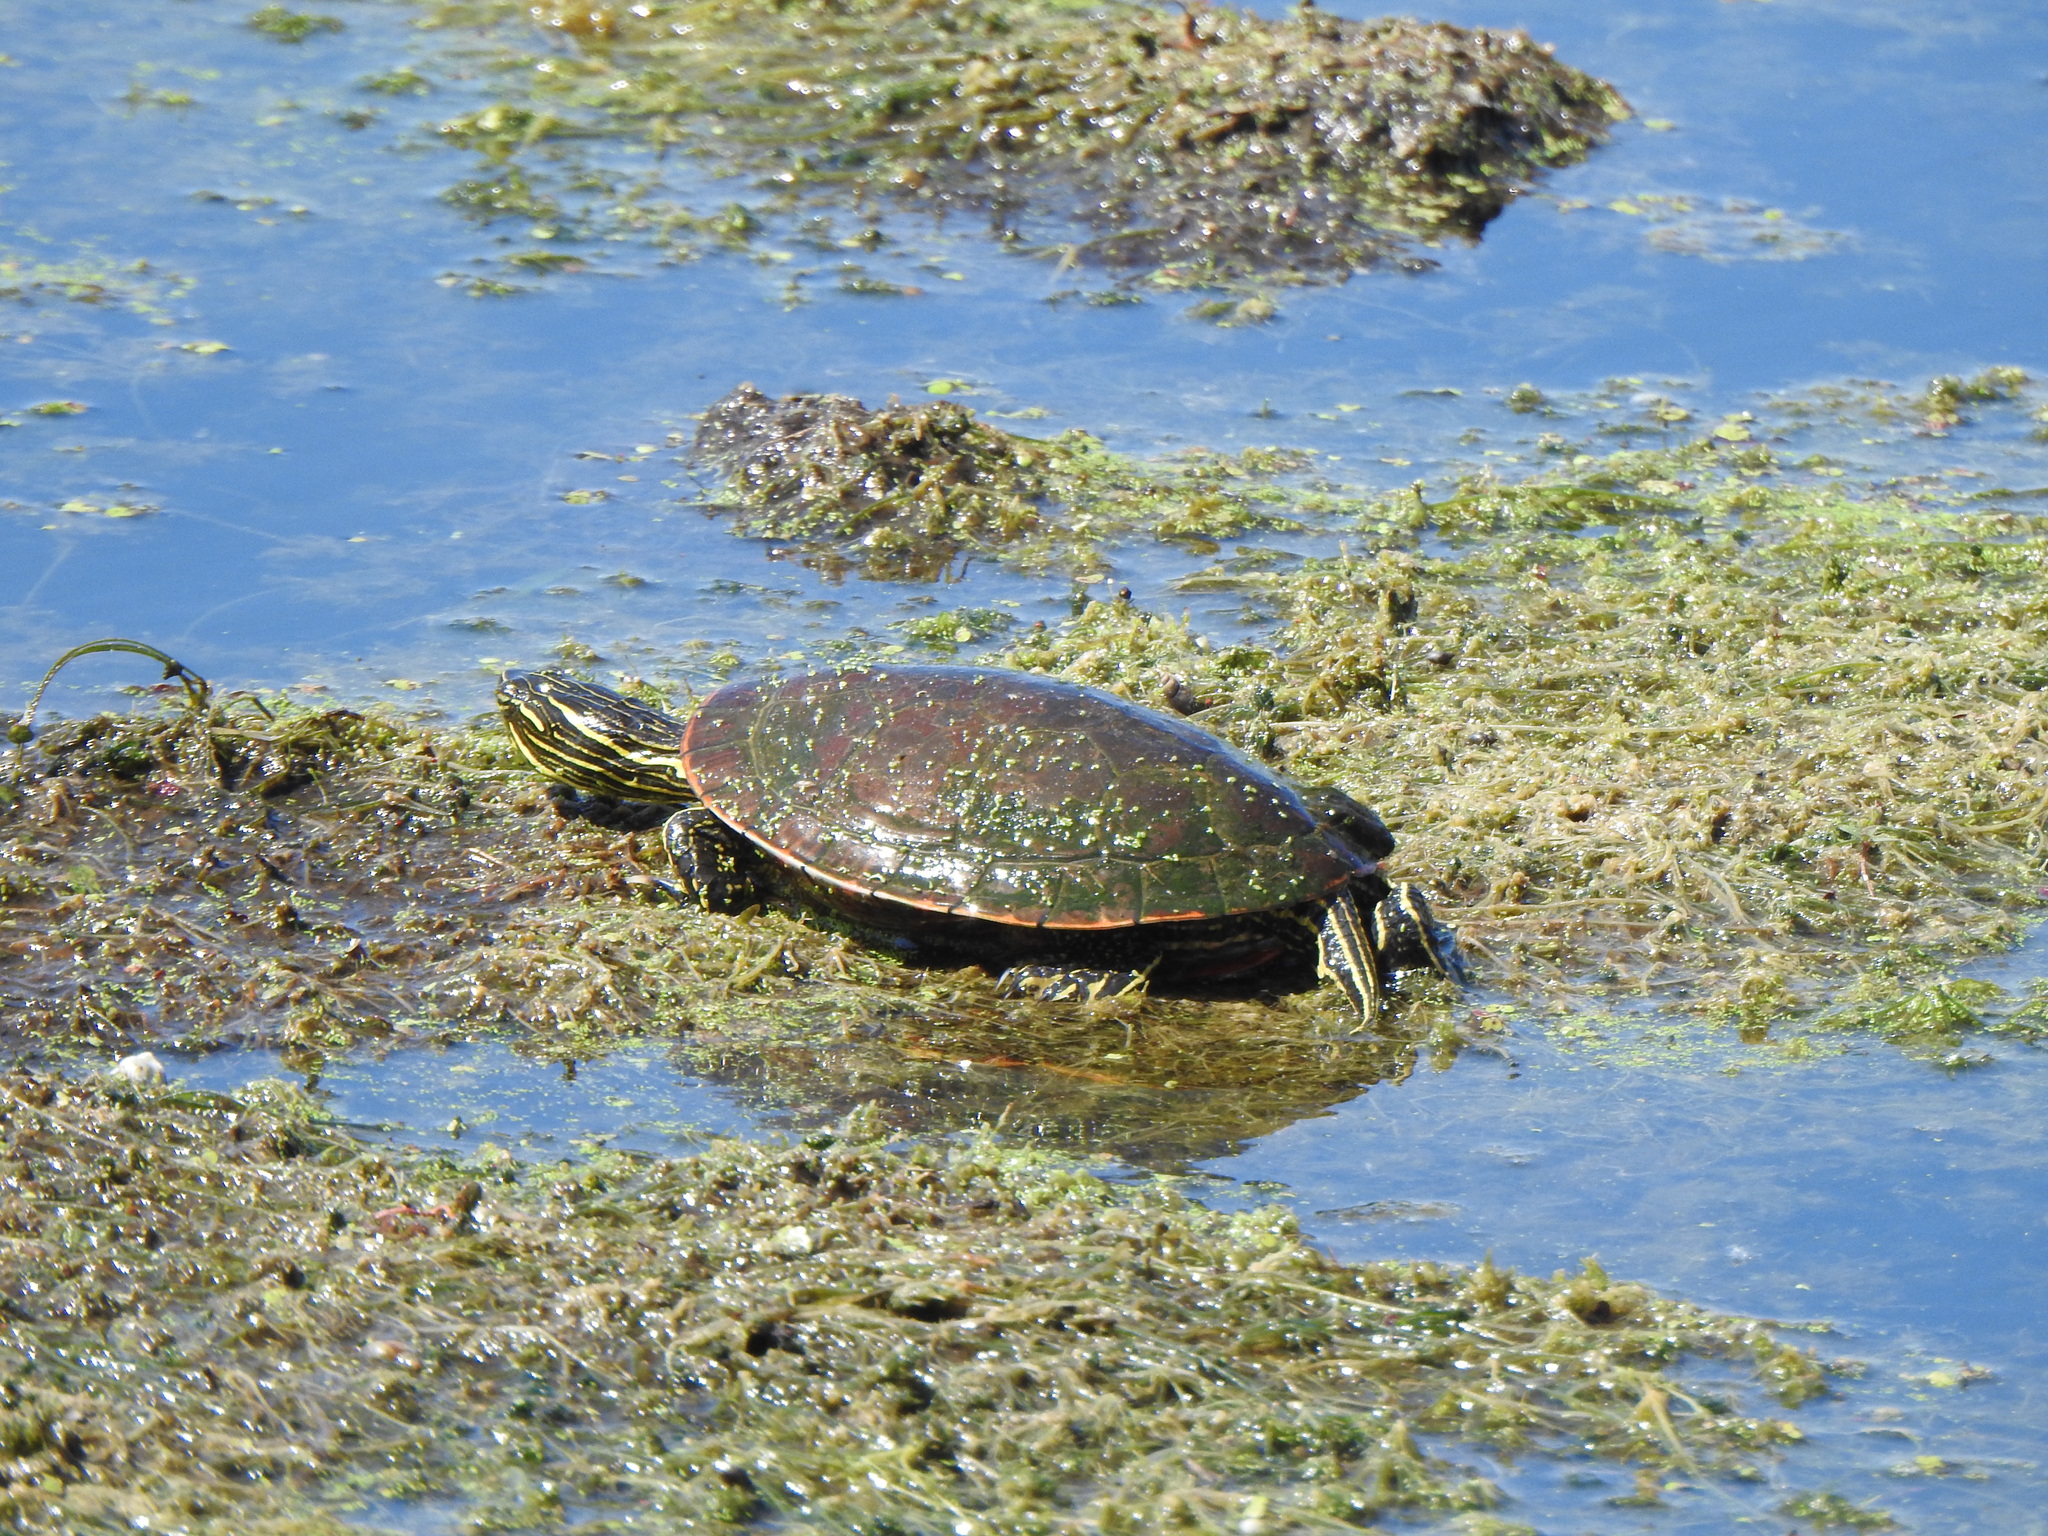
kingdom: Animalia
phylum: Chordata
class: Testudines
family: Emydidae
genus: Chrysemys
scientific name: Chrysemys picta
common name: Painted turtle
